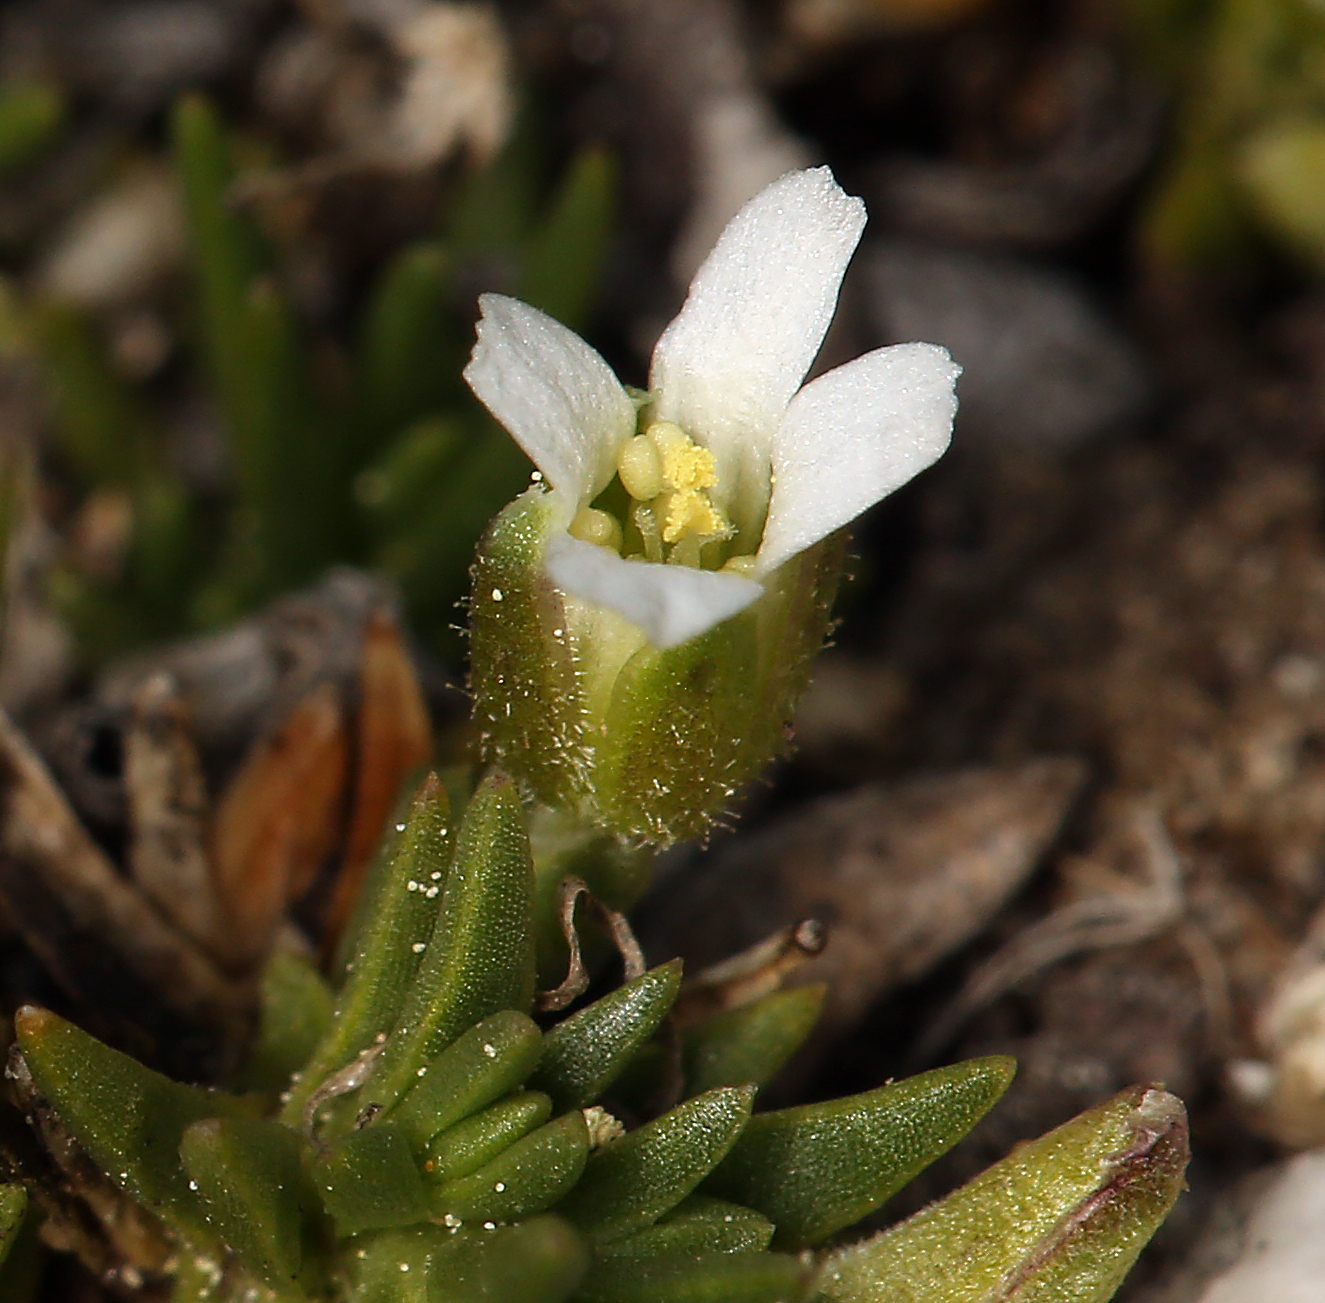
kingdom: Plantae
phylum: Tracheophyta
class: Magnoliopsida
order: Caryophyllales
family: Caryophyllaceae
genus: Cherleria
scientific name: Cherleria obtusiloba
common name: Alpine stitchwort
